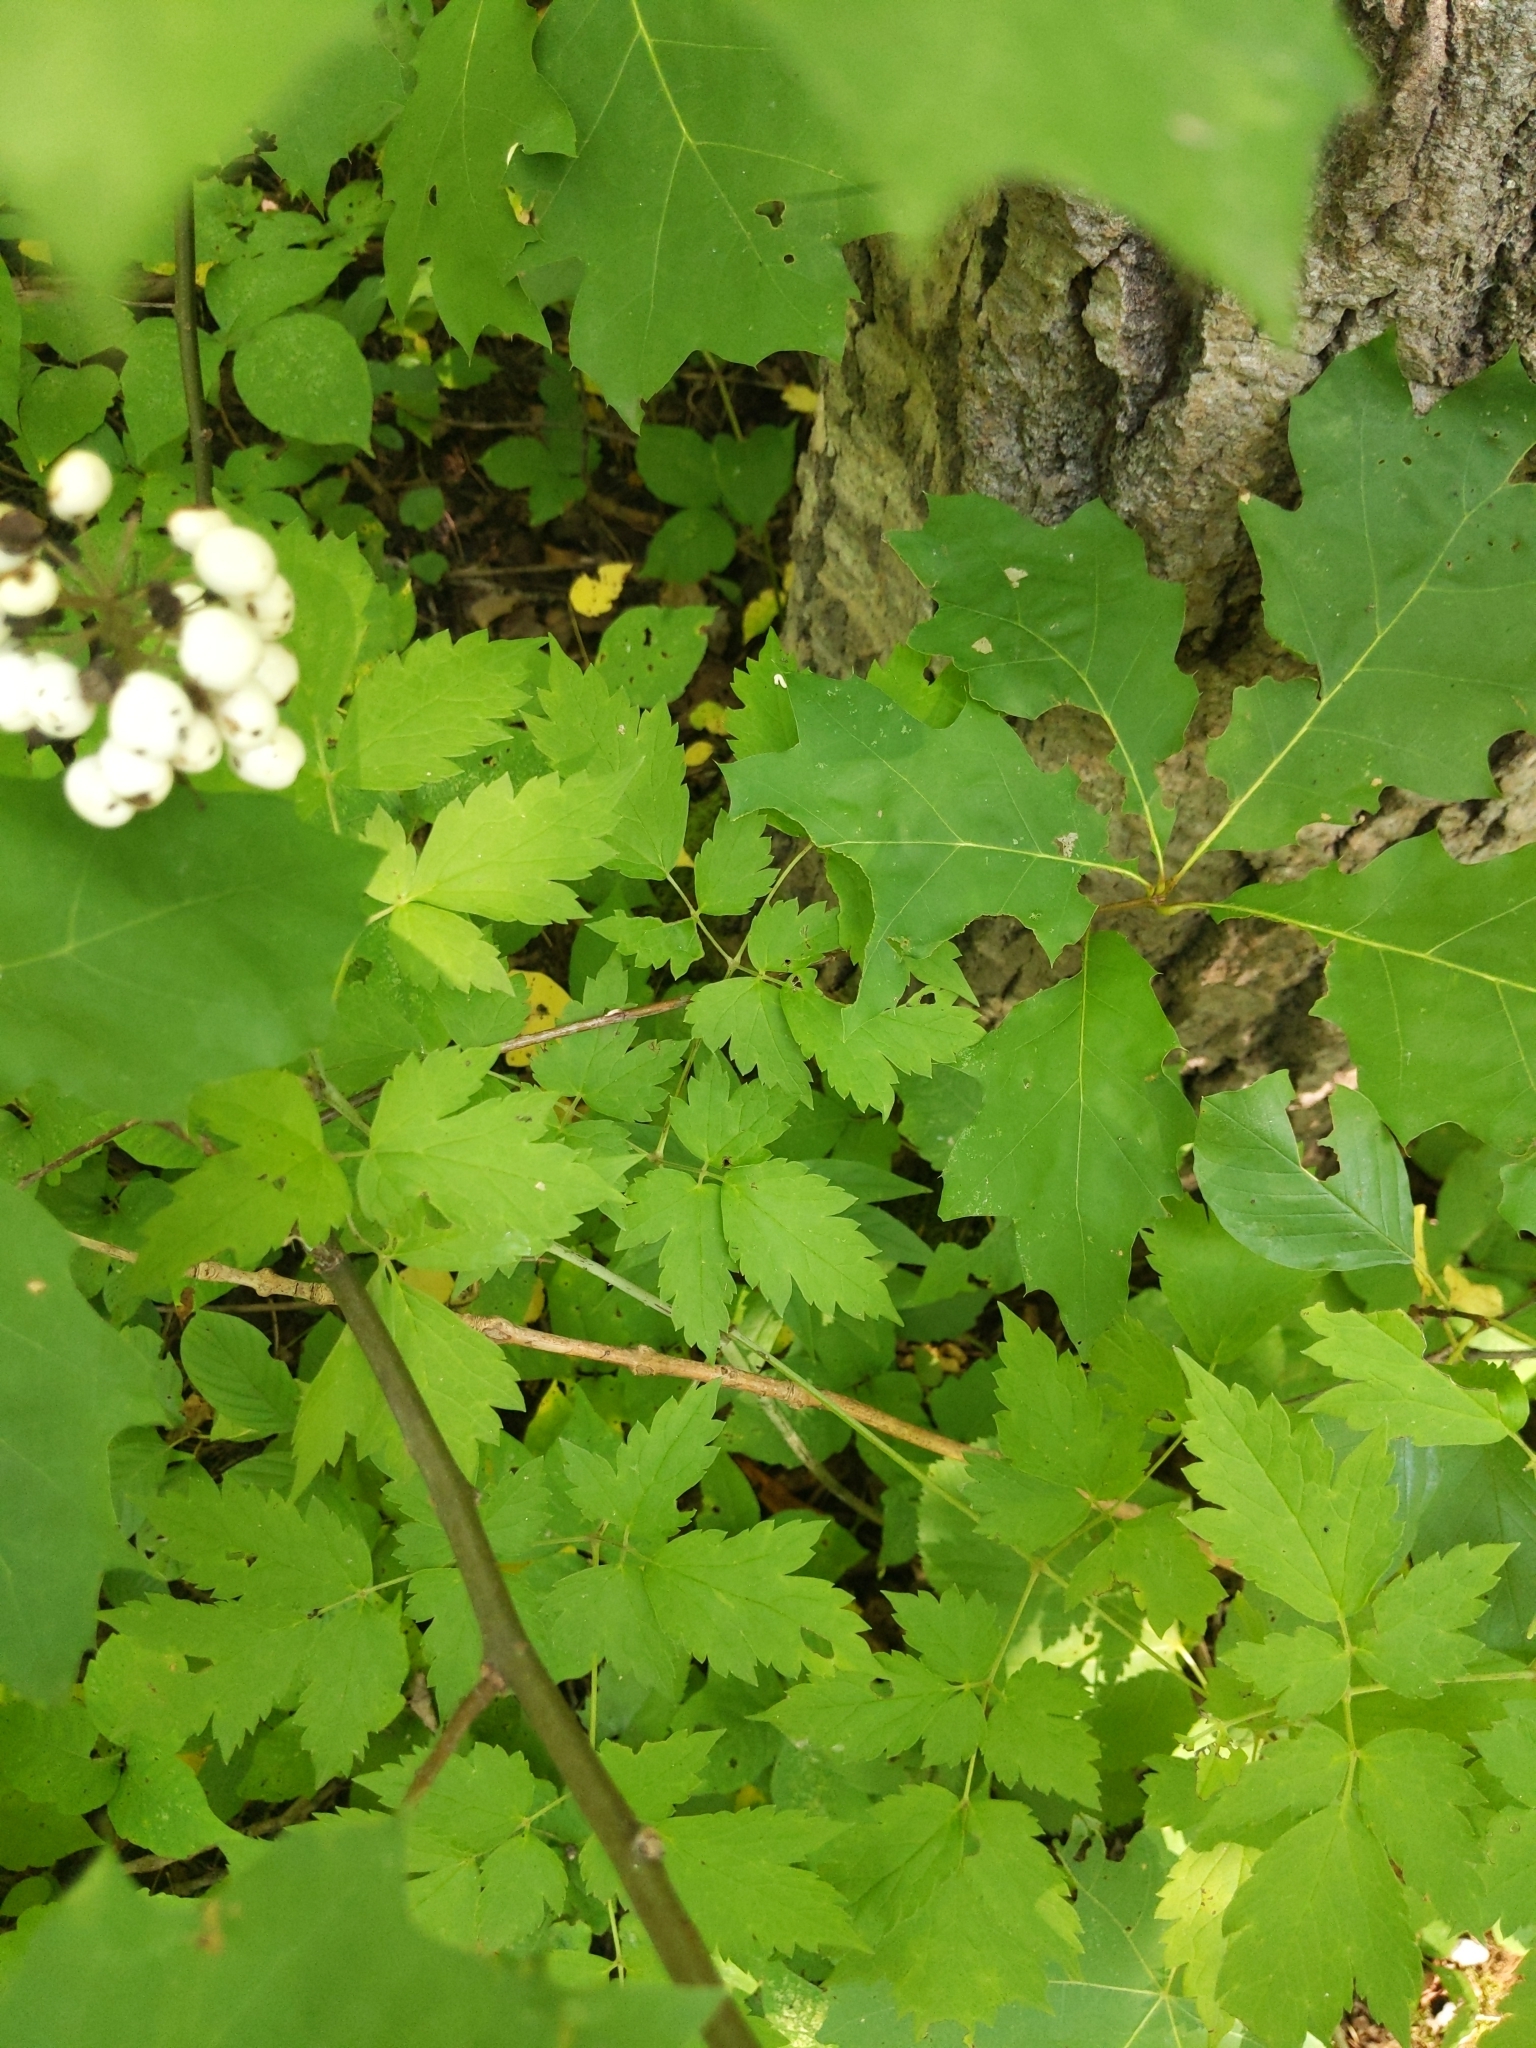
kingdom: Plantae
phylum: Tracheophyta
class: Magnoliopsida
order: Ranunculales
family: Ranunculaceae
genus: Actaea
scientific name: Actaea rubra
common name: Red baneberry
